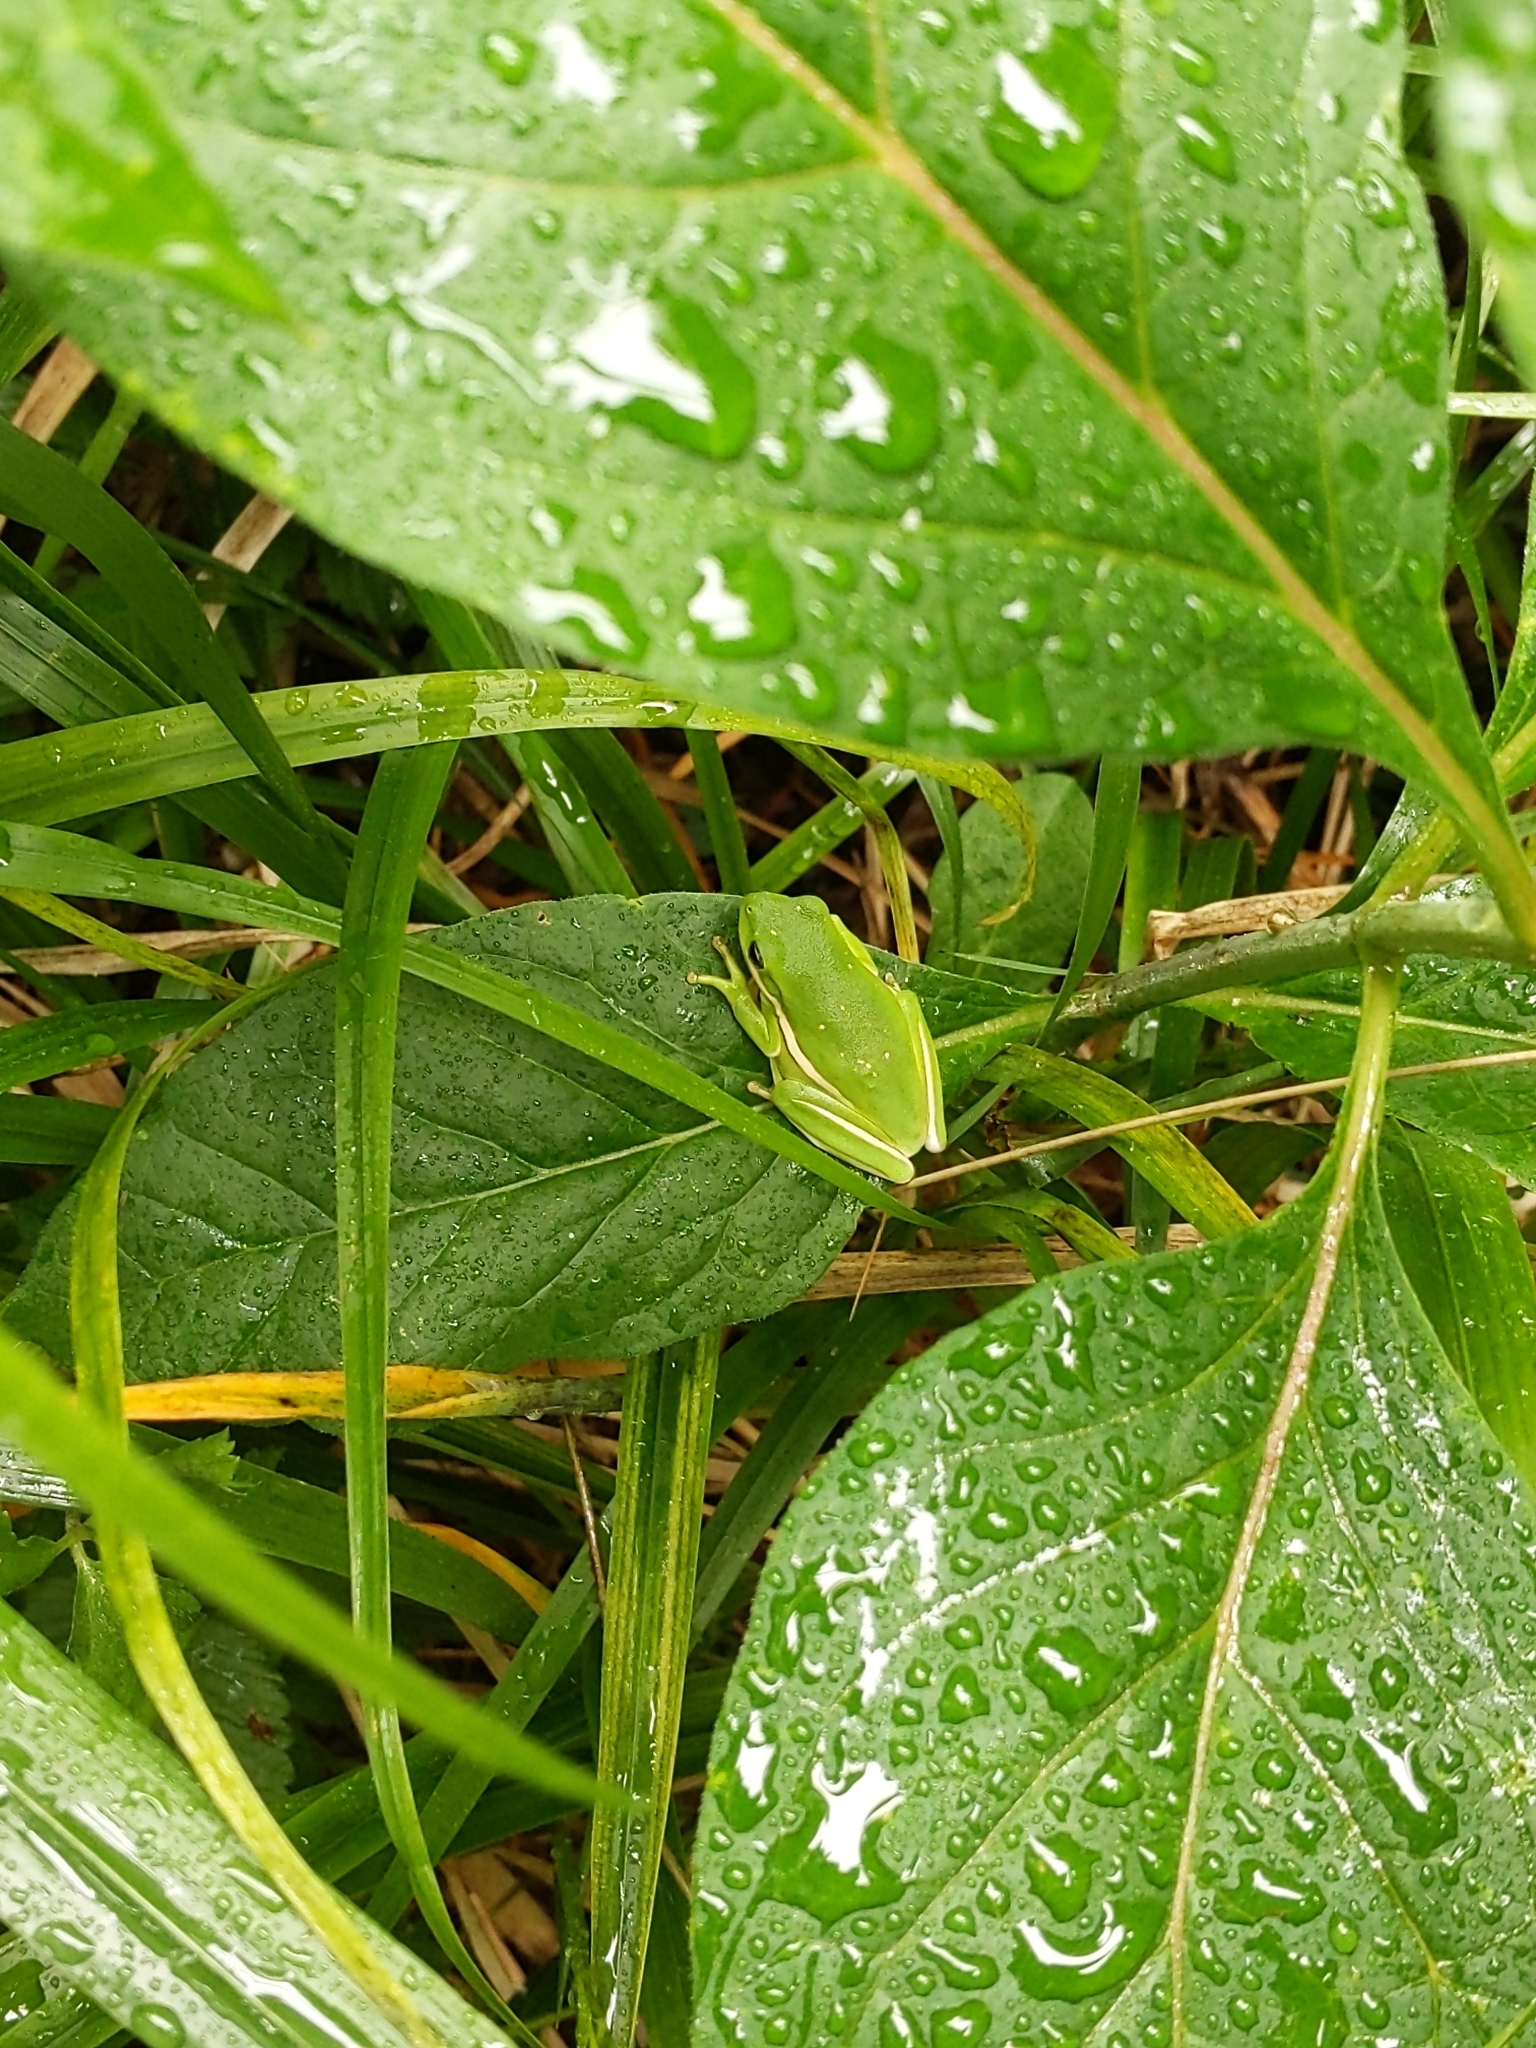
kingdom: Animalia
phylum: Chordata
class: Amphibia
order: Anura
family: Hylidae
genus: Dryophytes
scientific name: Dryophytes cinereus
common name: Green treefrog
